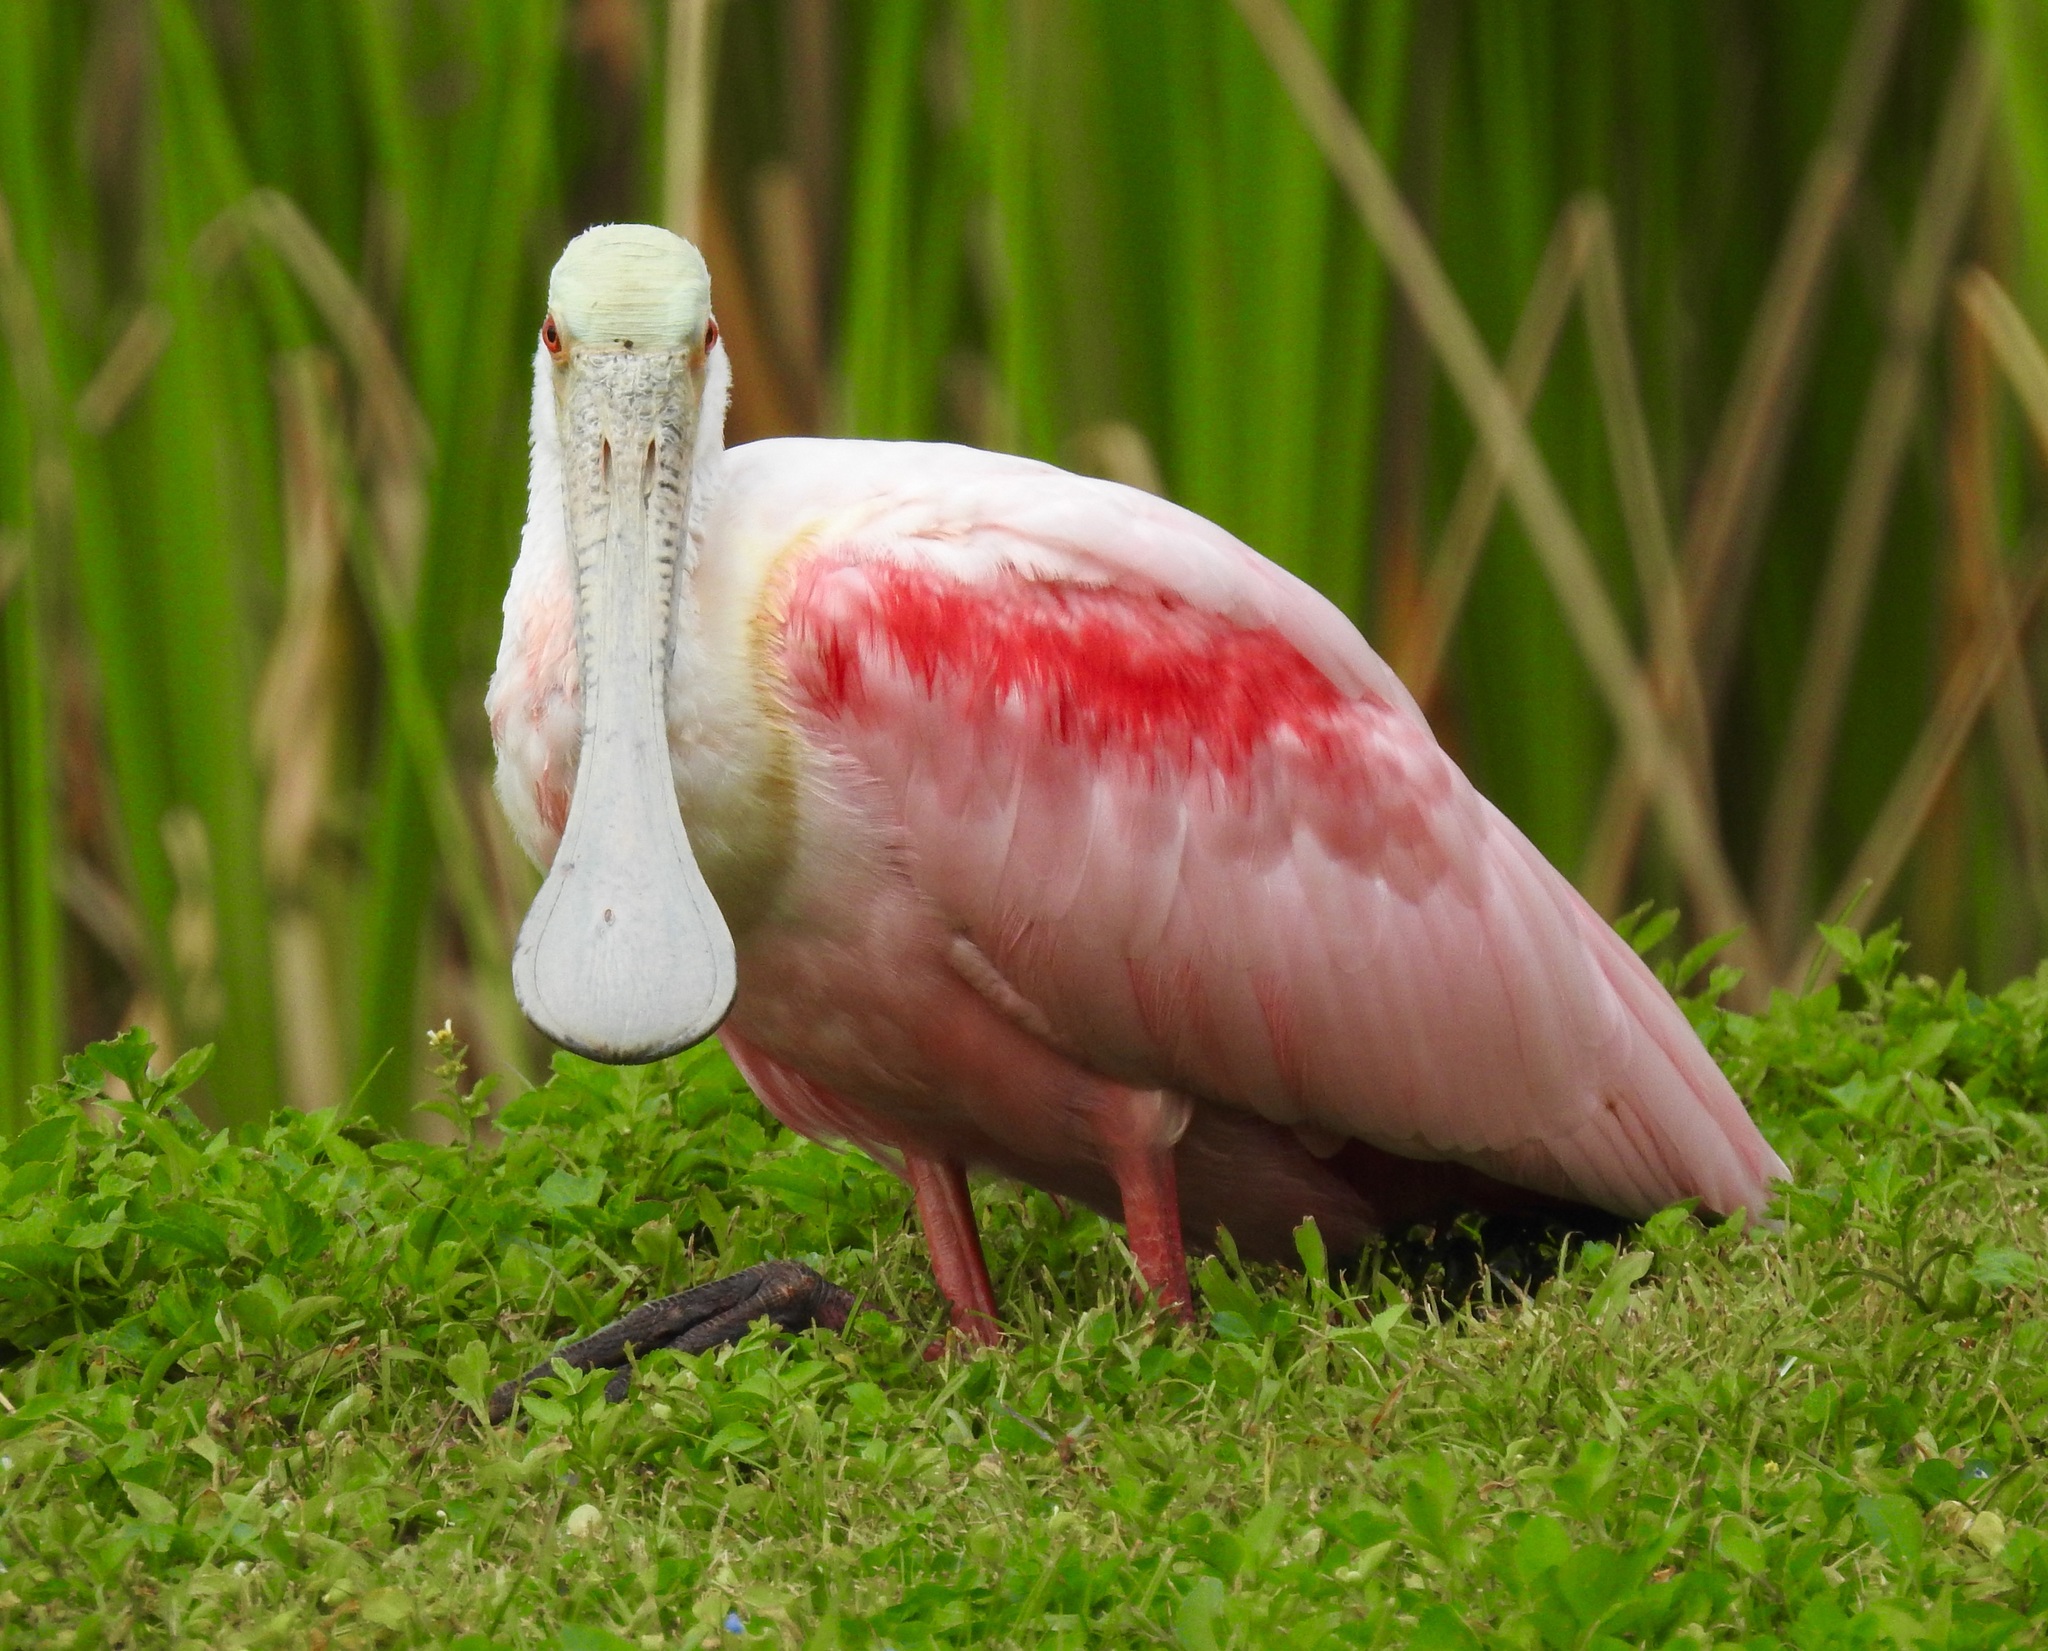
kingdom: Animalia
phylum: Chordata
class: Aves
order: Pelecaniformes
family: Threskiornithidae
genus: Platalea
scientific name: Platalea ajaja
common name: Roseate spoonbill
